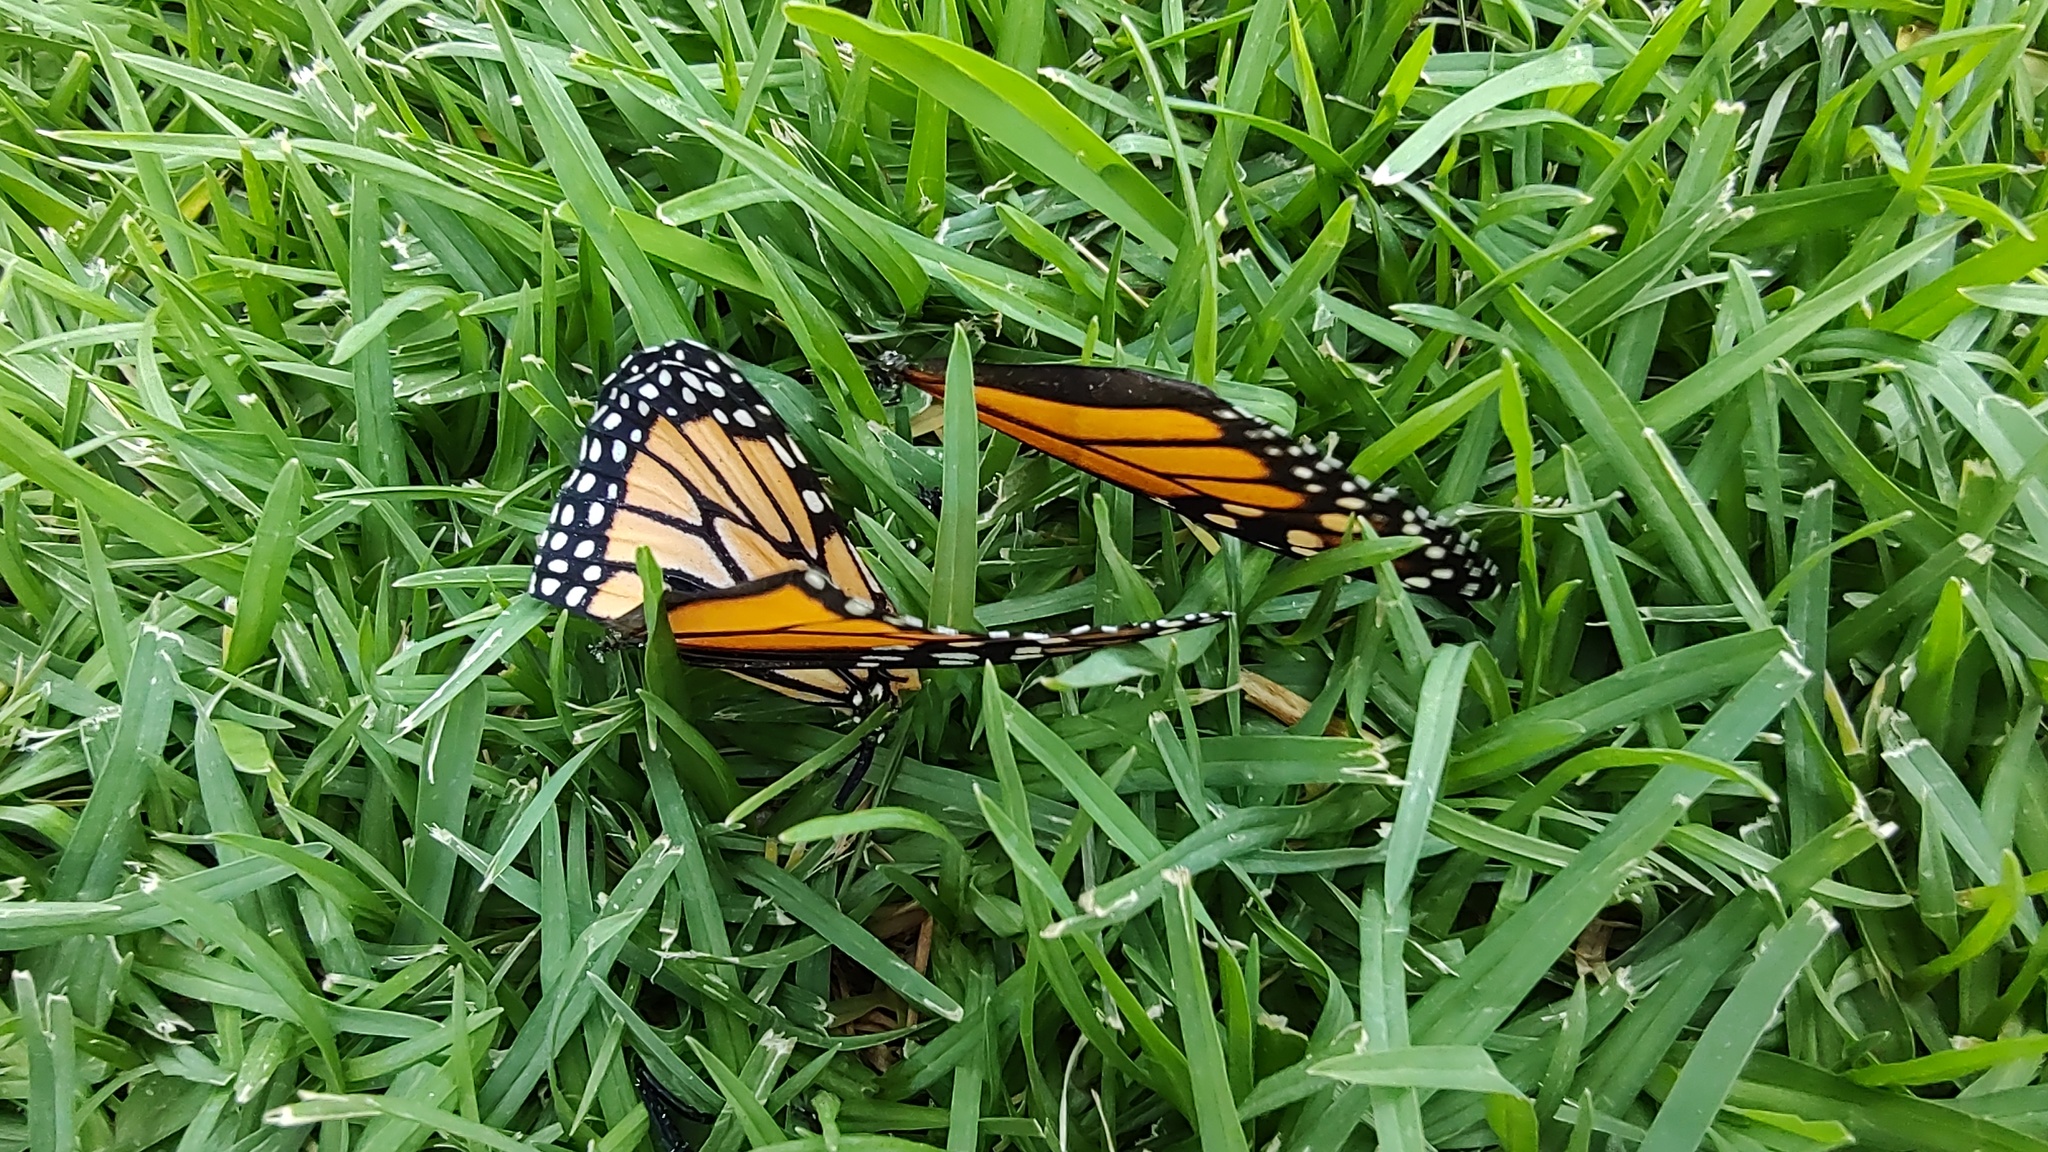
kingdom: Animalia
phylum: Arthropoda
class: Insecta
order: Lepidoptera
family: Nymphalidae
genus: Danaus
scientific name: Danaus plexippus
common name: Monarch
